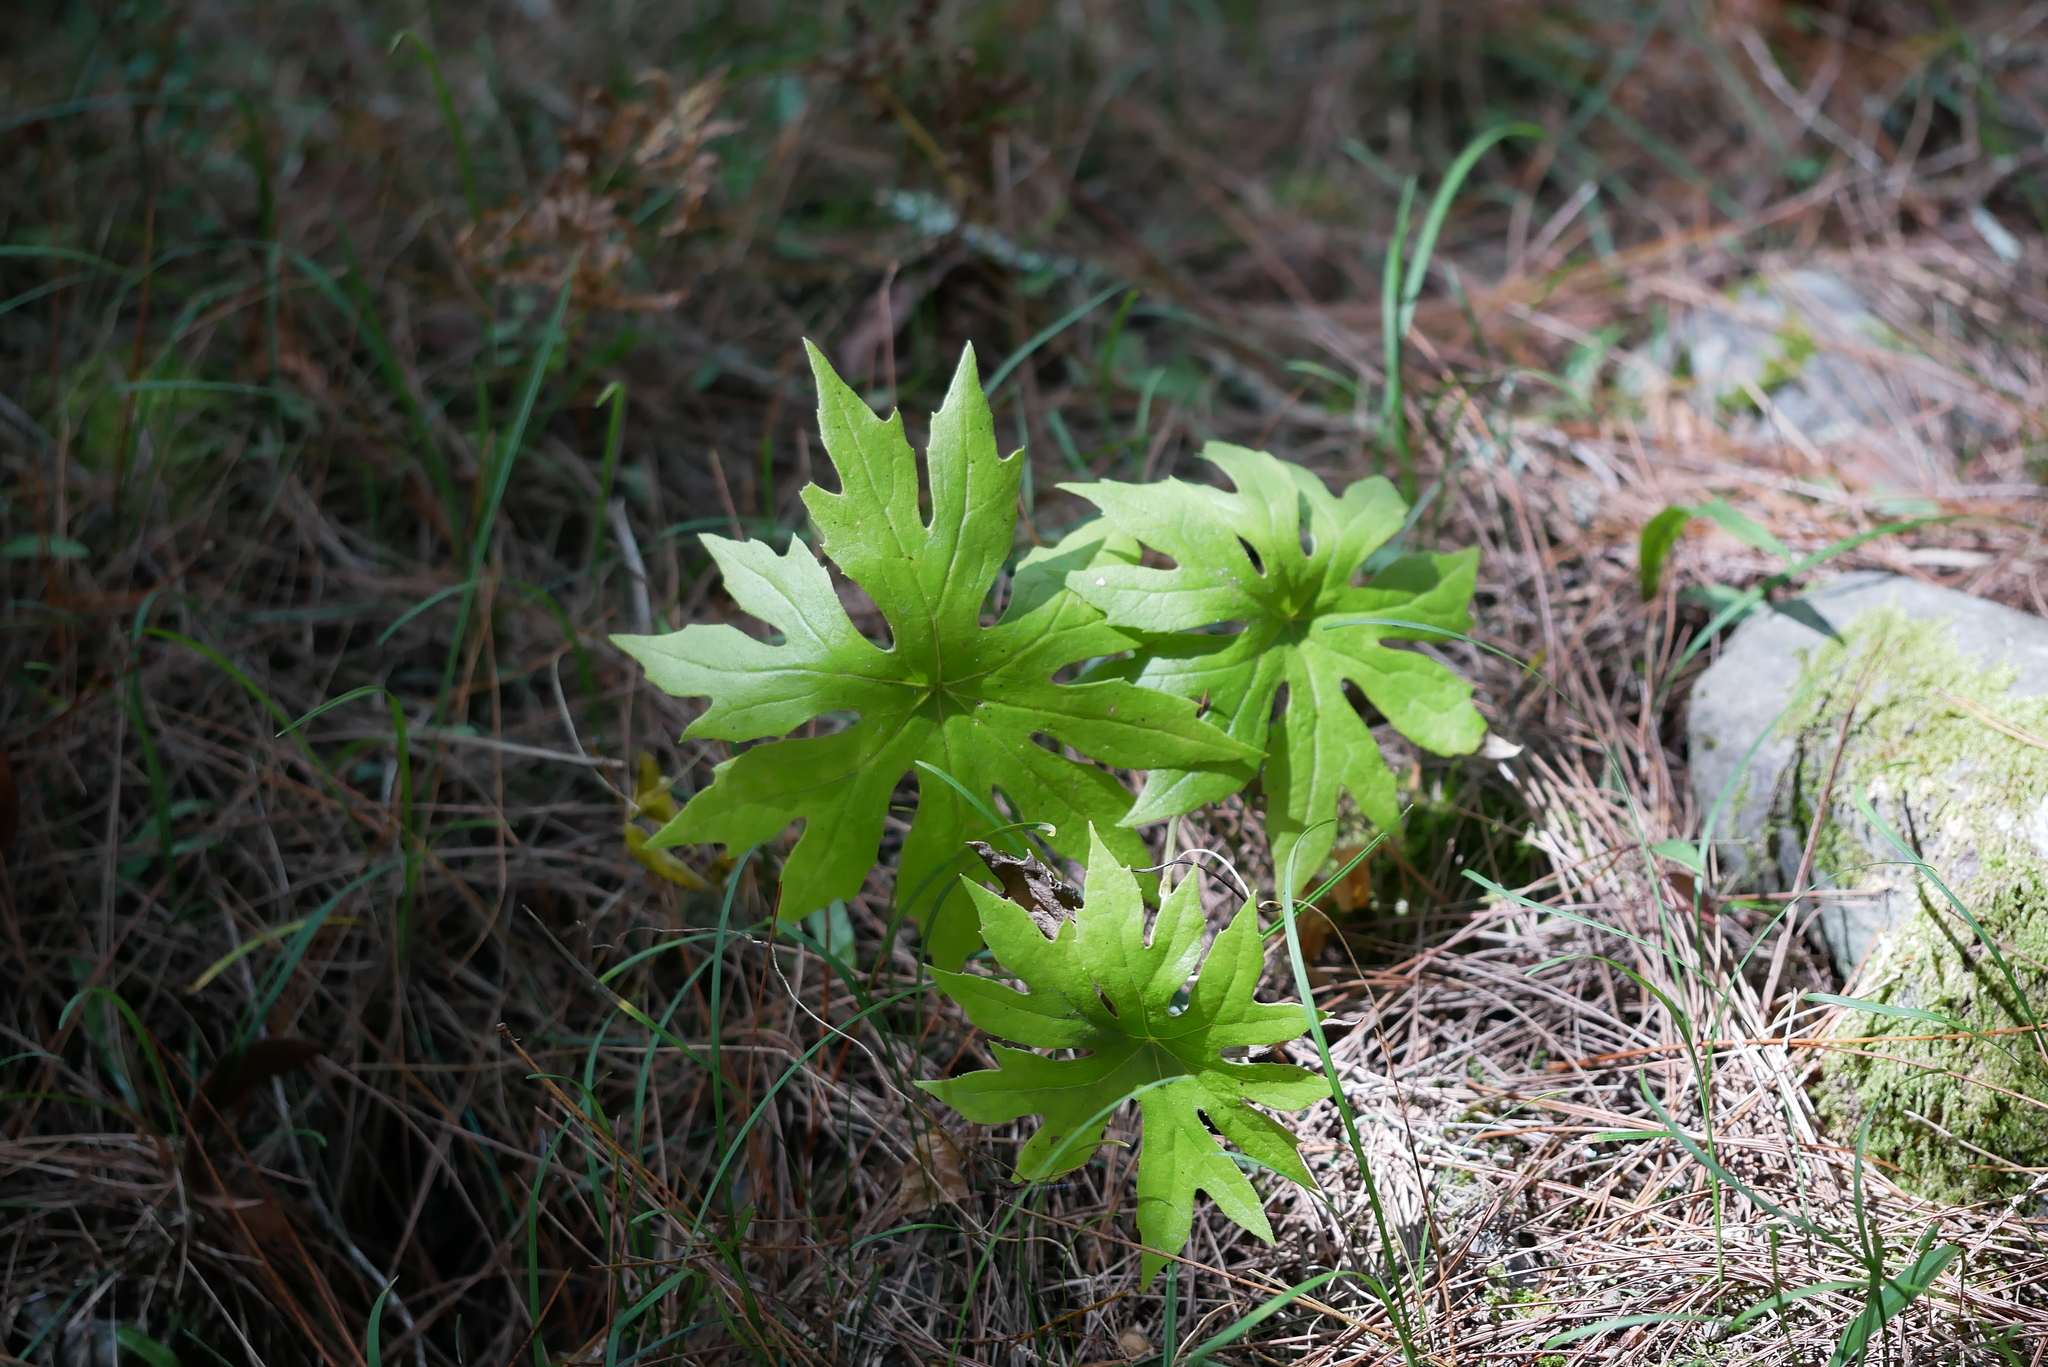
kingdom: Plantae
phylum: Tracheophyta
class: Magnoliopsida
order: Asterales
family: Asteraceae
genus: Syneilesis
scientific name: Syneilesis subglabrata
